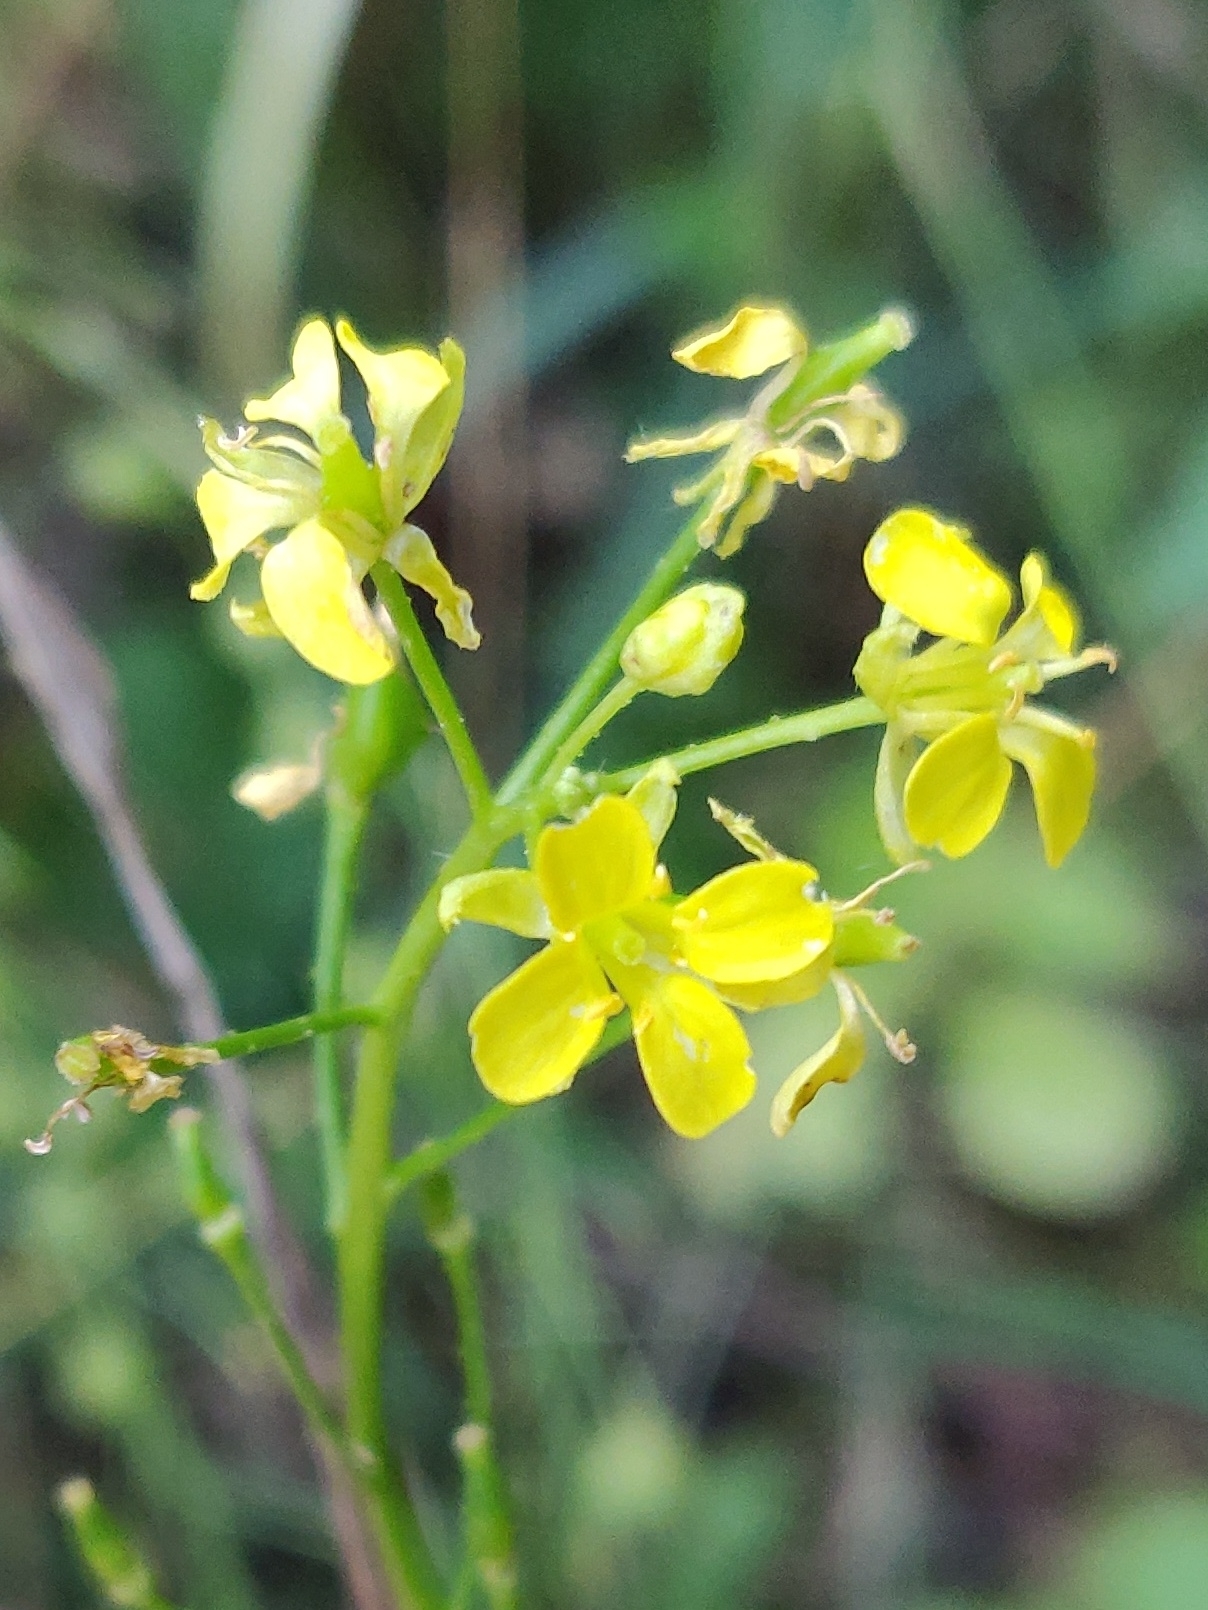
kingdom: Plantae
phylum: Tracheophyta
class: Magnoliopsida
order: Brassicales
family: Brassicaceae
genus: Bunias
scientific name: Bunias orientalis
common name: Warty-cabbage
